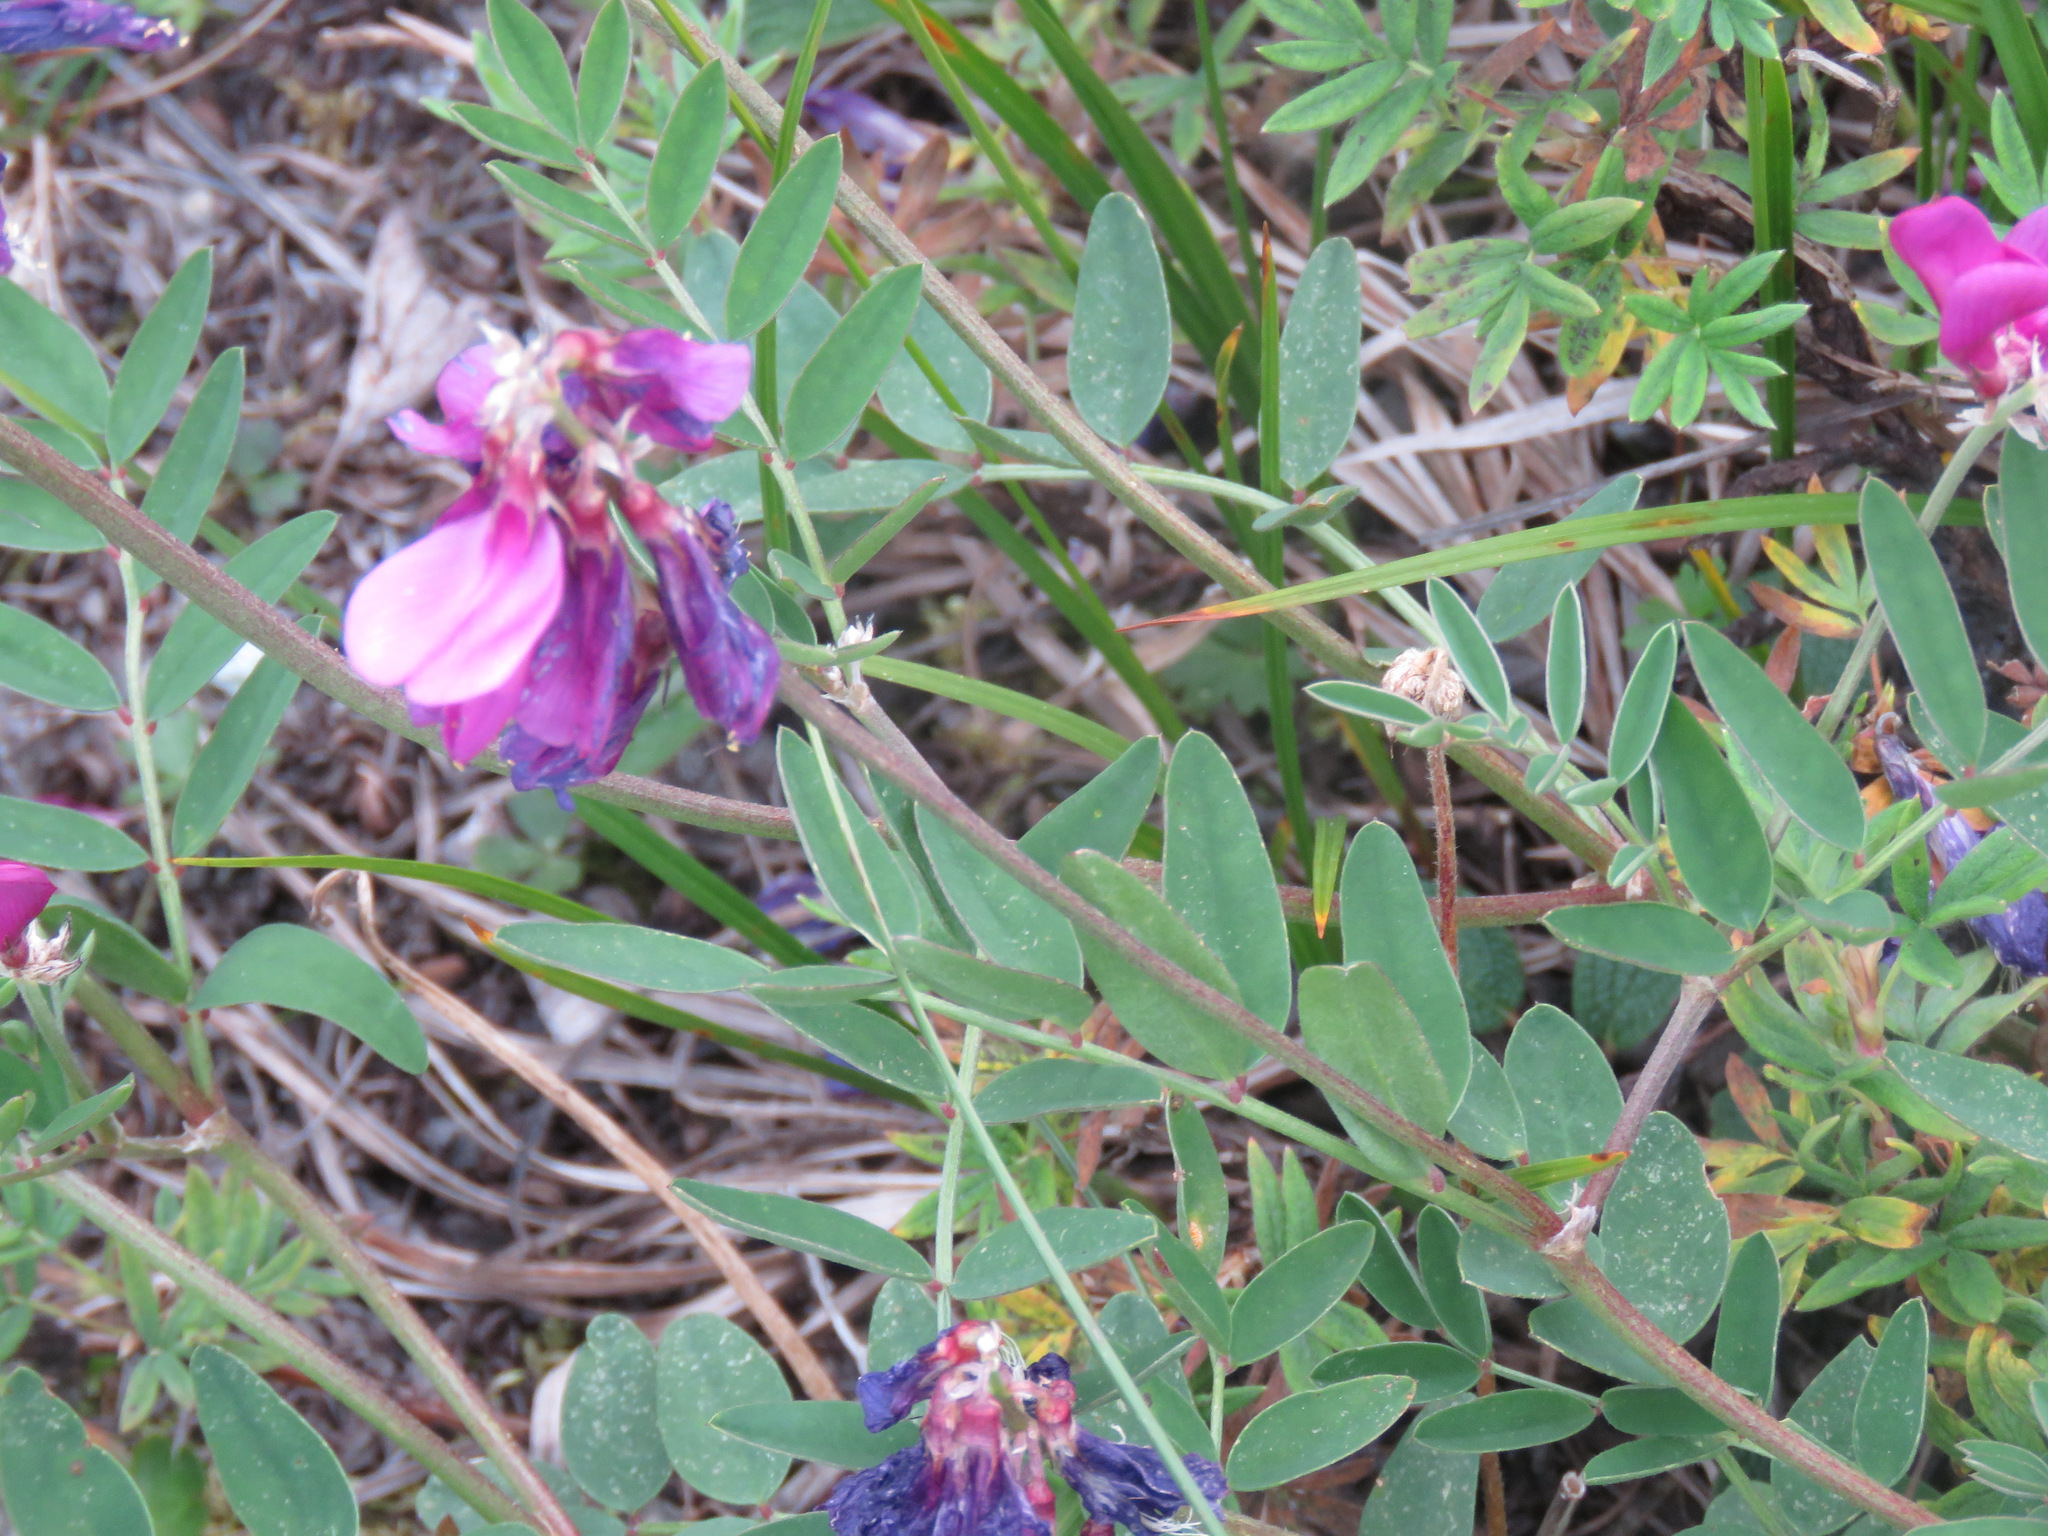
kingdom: Plantae
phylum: Tracheophyta
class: Magnoliopsida
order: Fabales
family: Fabaceae
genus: Hedysarum
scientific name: Hedysarum boreale
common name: Northern sweet-vetch
